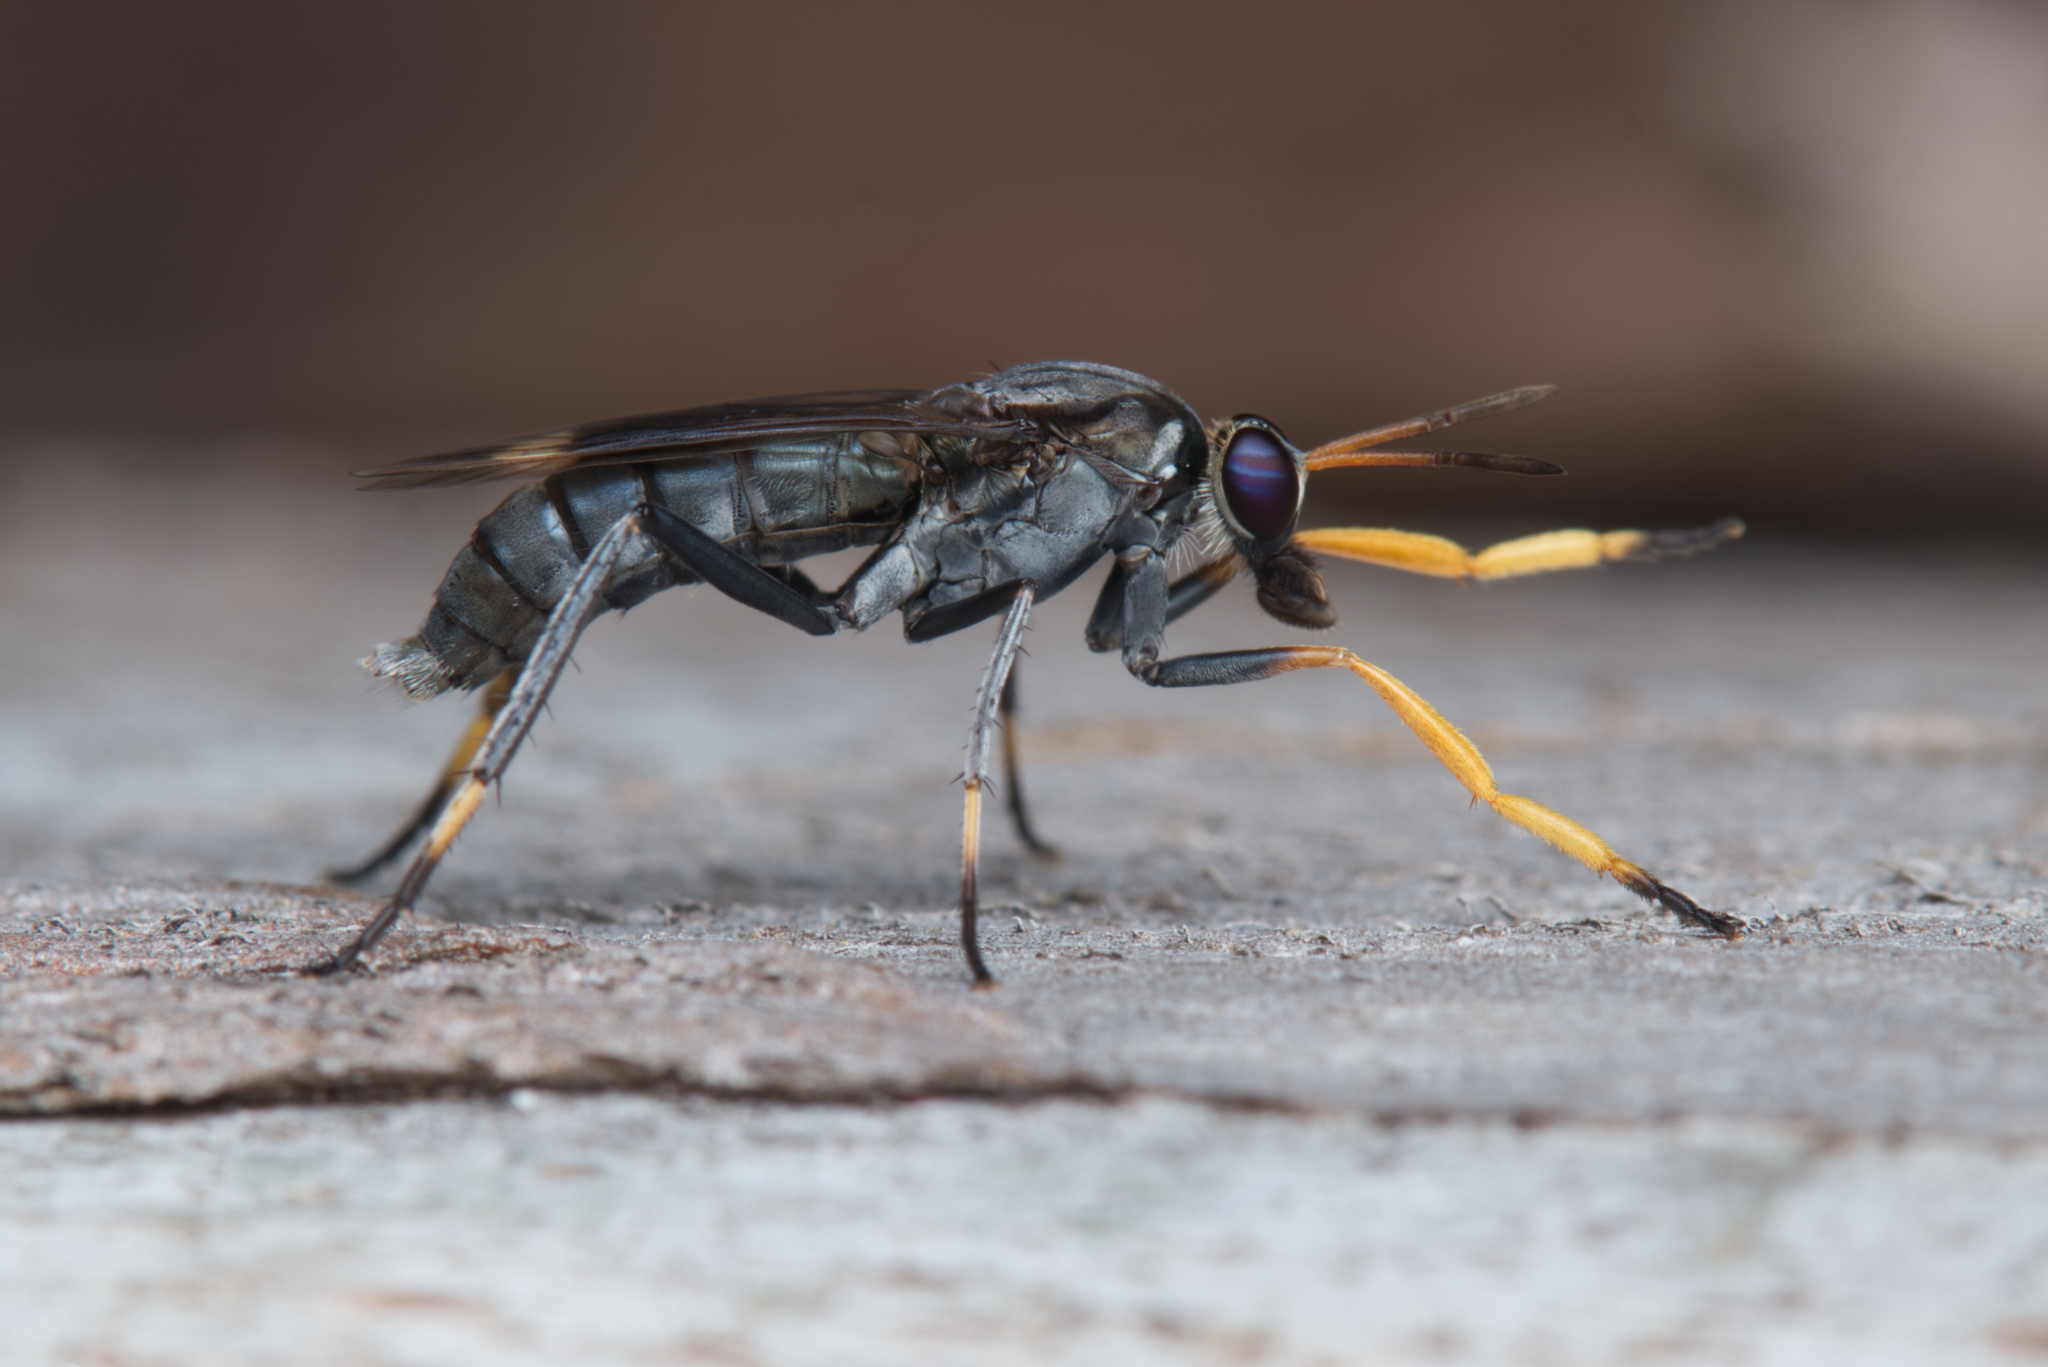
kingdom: Animalia
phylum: Arthropoda
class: Insecta
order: Diptera
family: Therevidae
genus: Agapophytus
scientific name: Agapophytus australasiae
